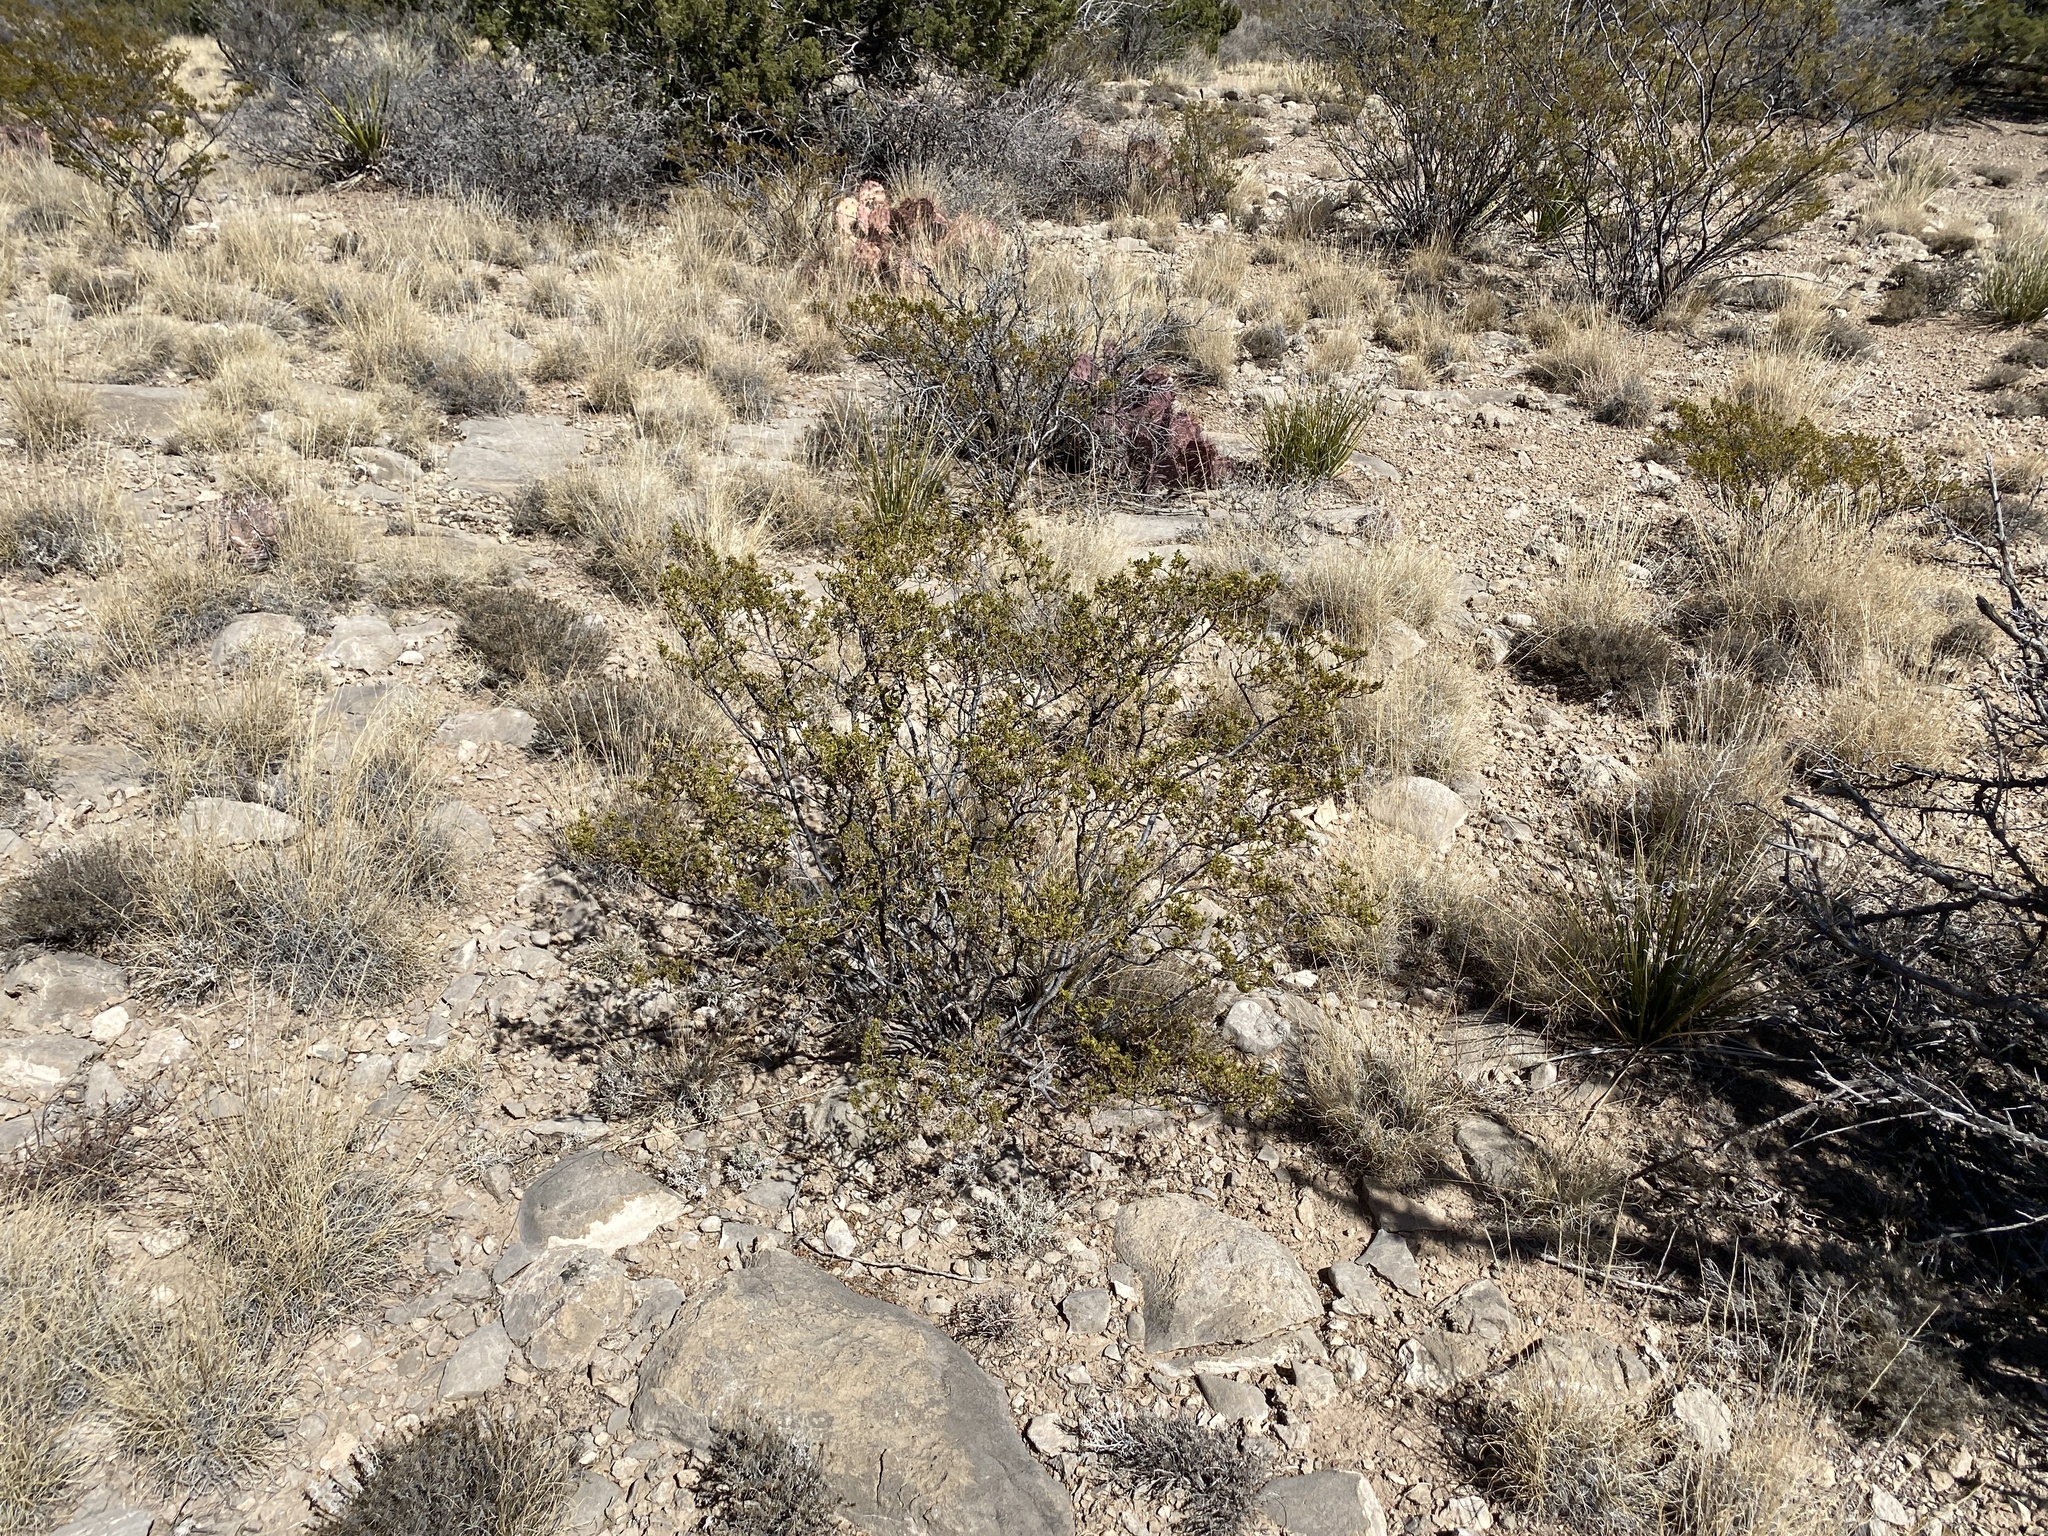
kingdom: Plantae
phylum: Tracheophyta
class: Magnoliopsida
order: Zygophyllales
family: Zygophyllaceae
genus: Larrea
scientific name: Larrea tridentata
